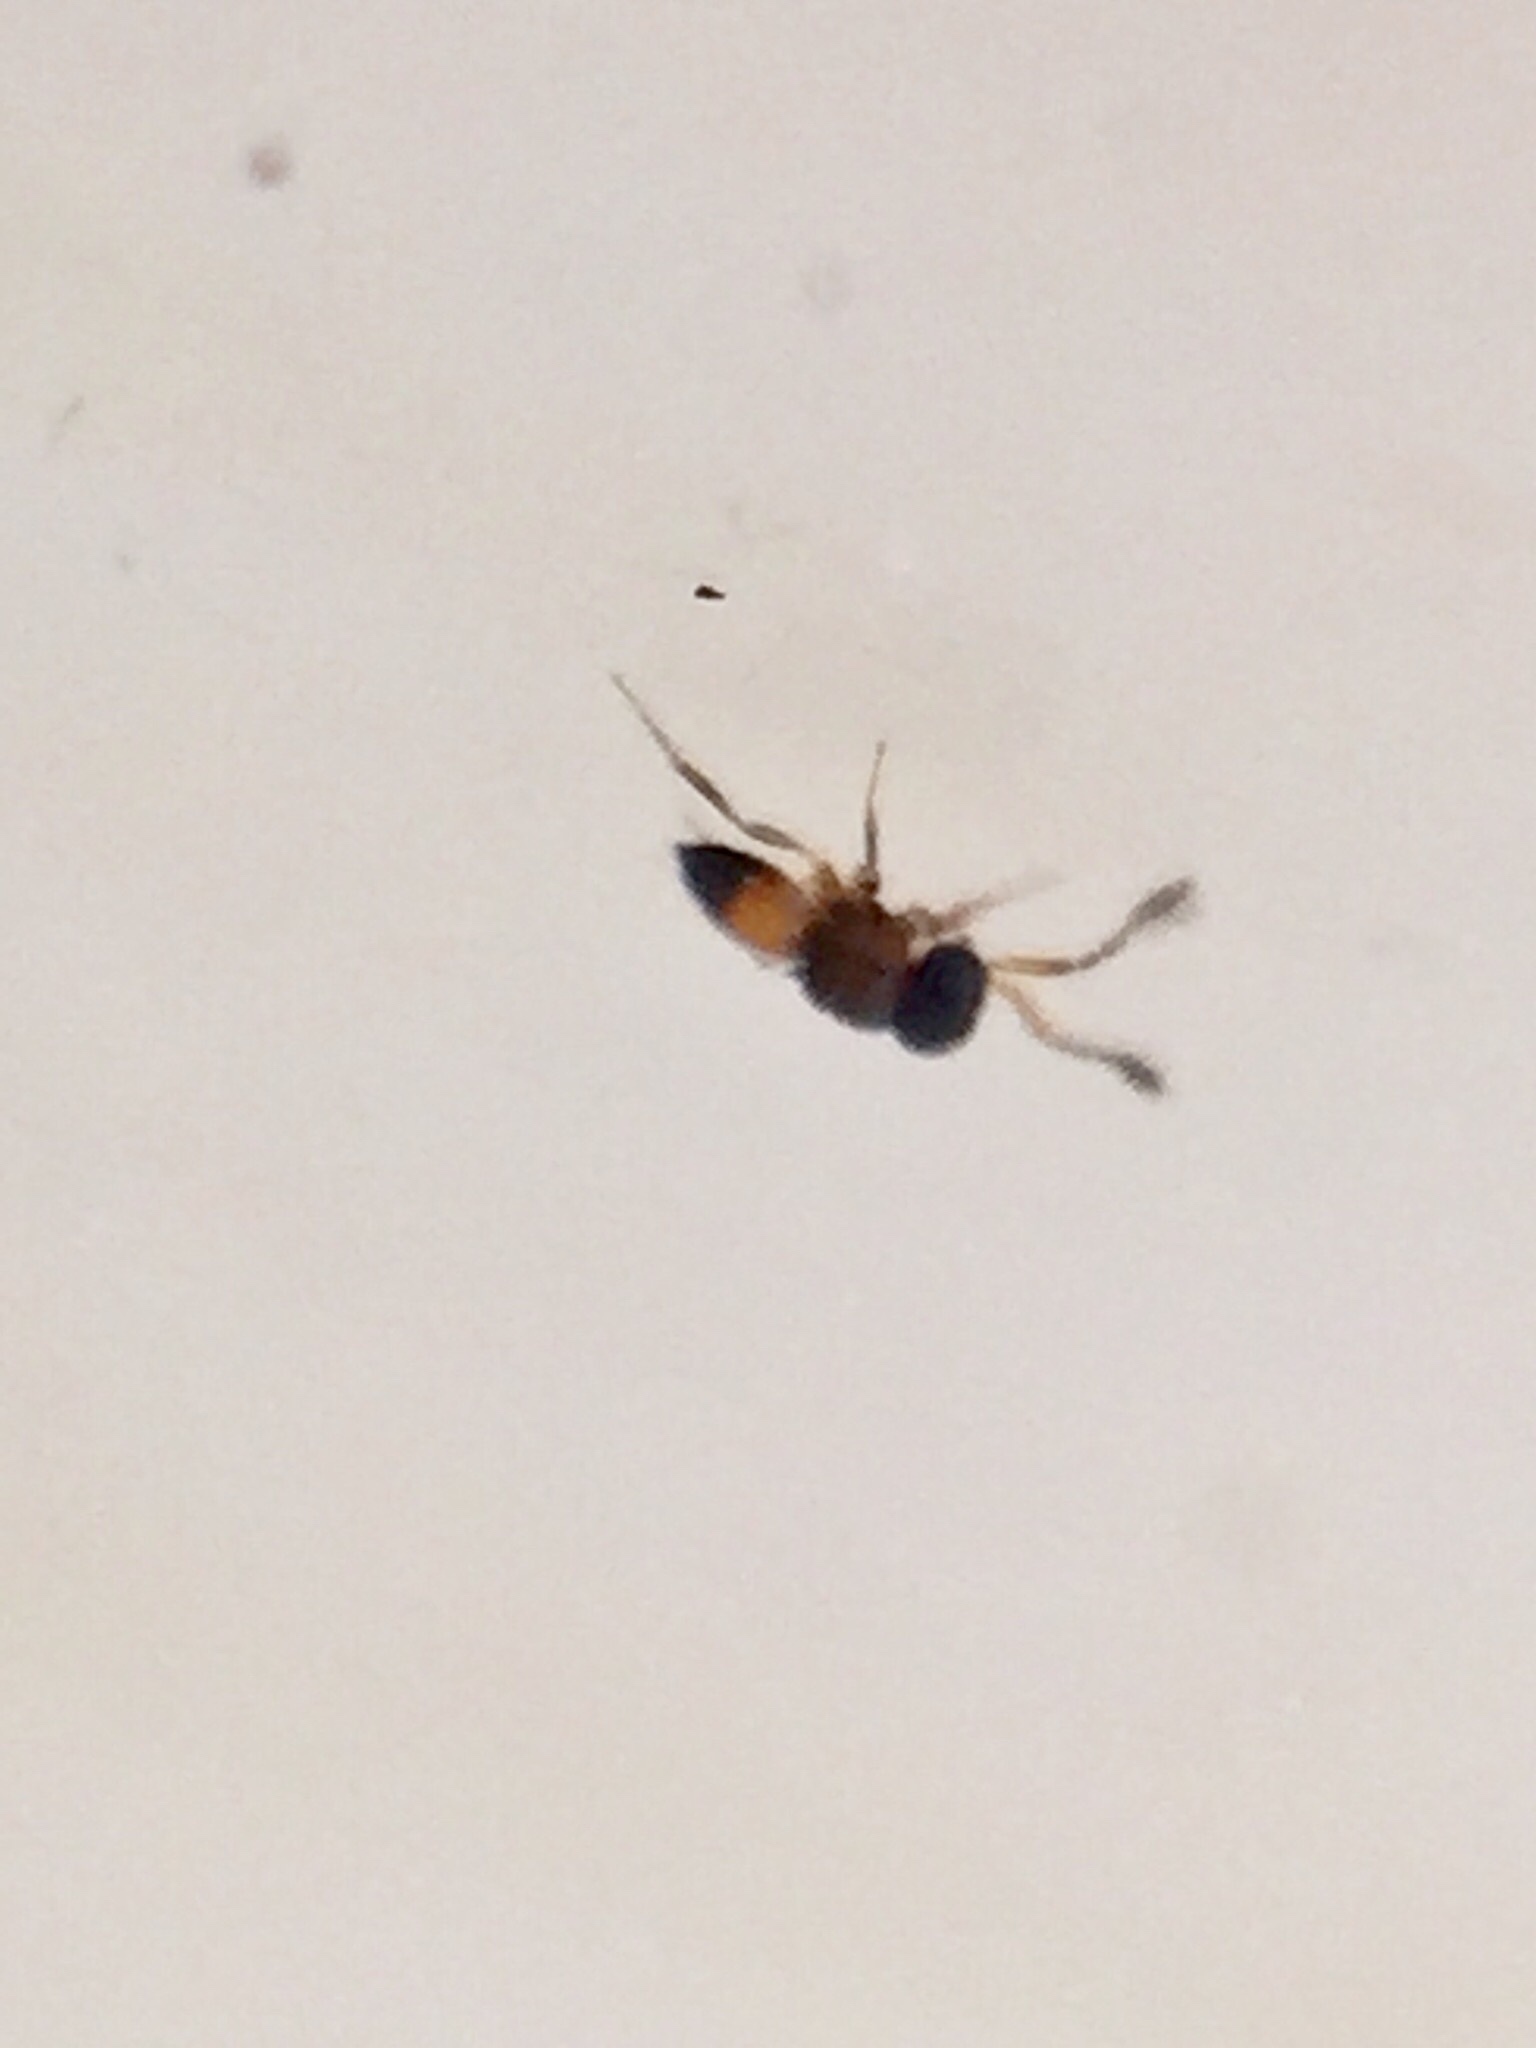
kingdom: Animalia
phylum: Arthropoda
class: Insecta
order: Hymenoptera
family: Scelionidae
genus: Gryon
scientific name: Gryon misellum
